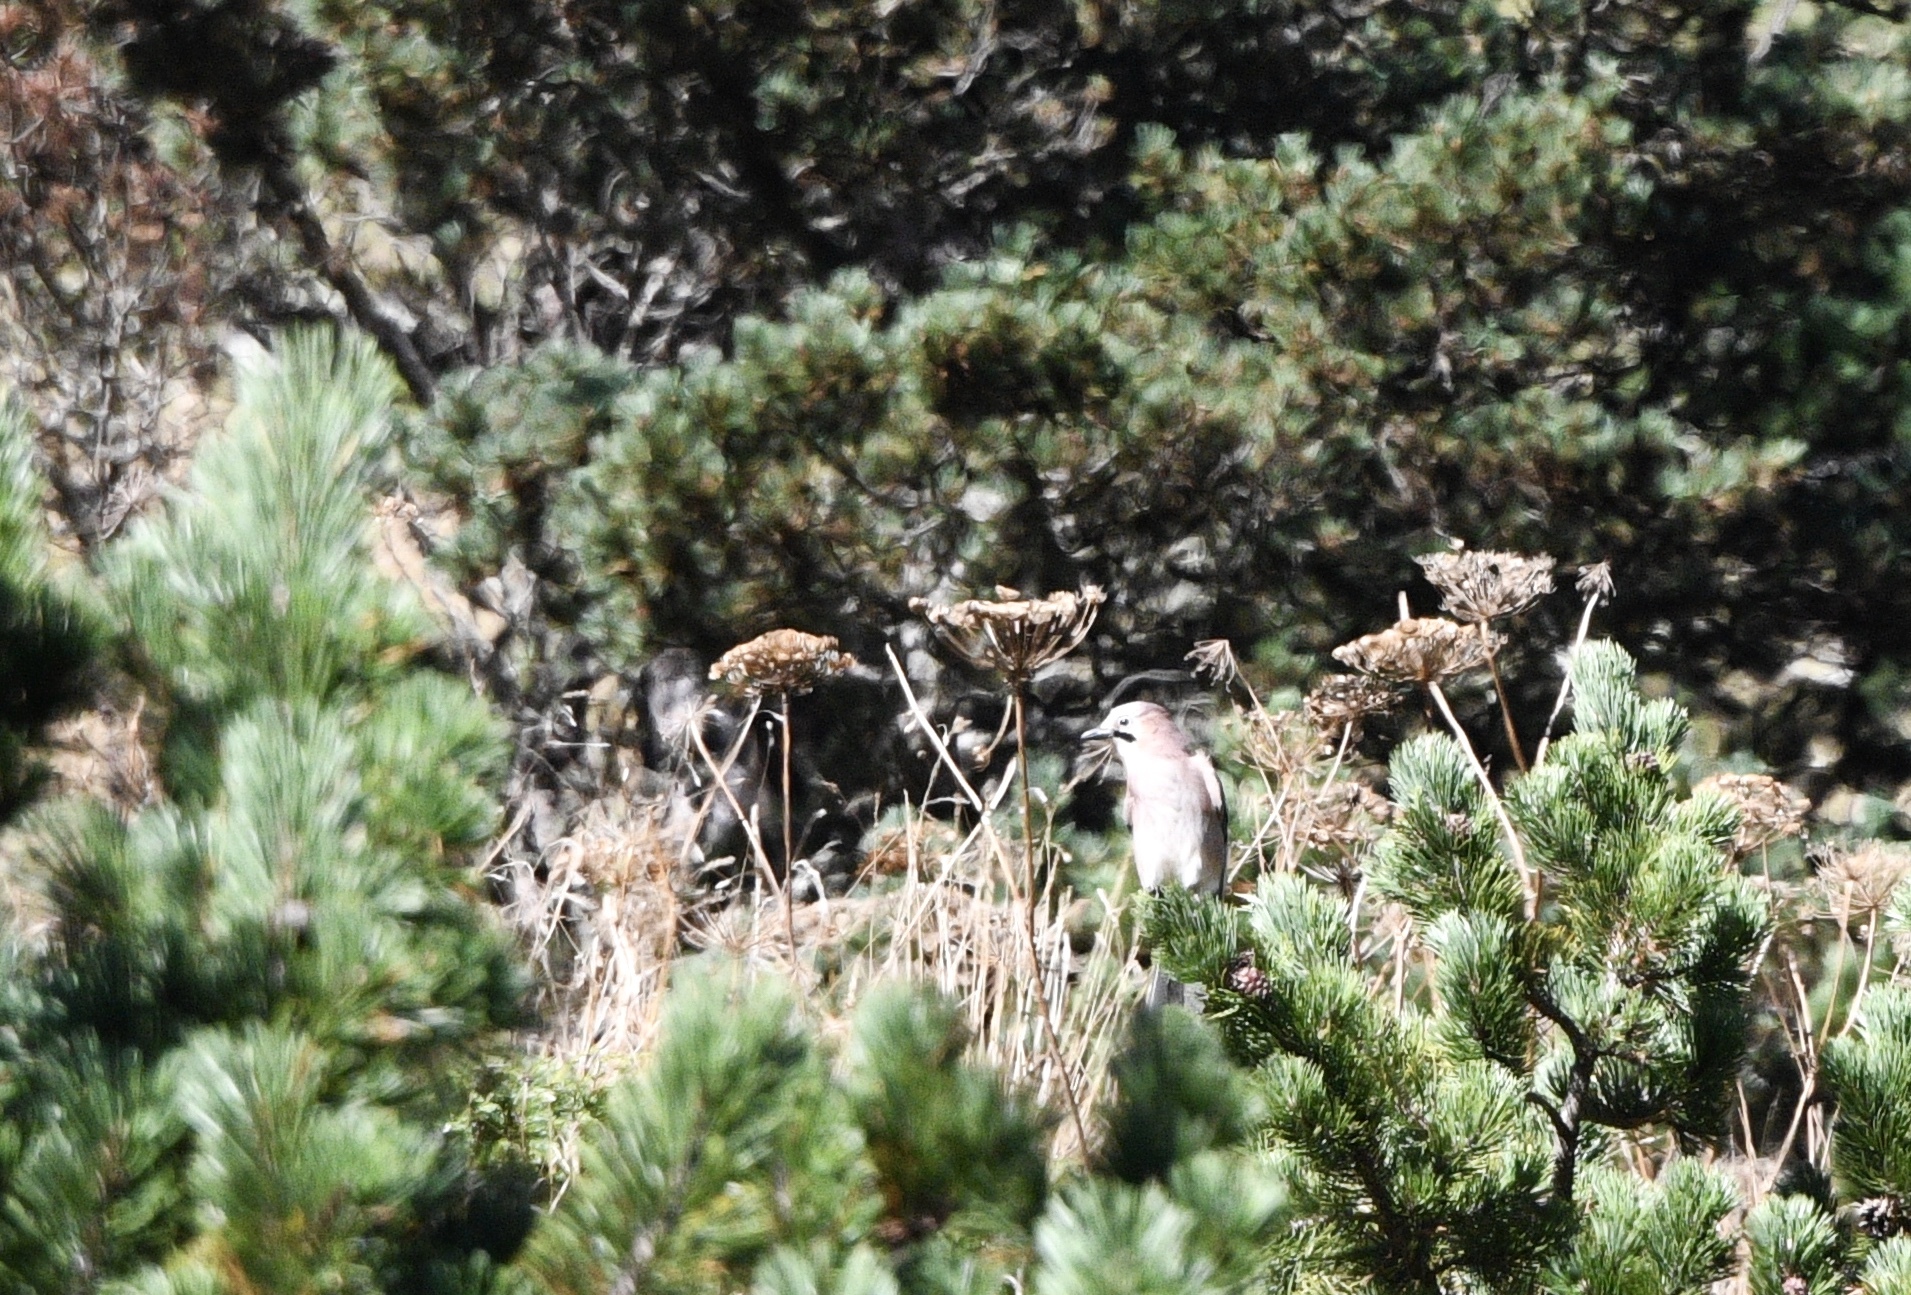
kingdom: Animalia
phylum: Chordata
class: Aves
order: Passeriformes
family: Corvidae
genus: Garrulus
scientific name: Garrulus glandarius
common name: Eurasian jay
